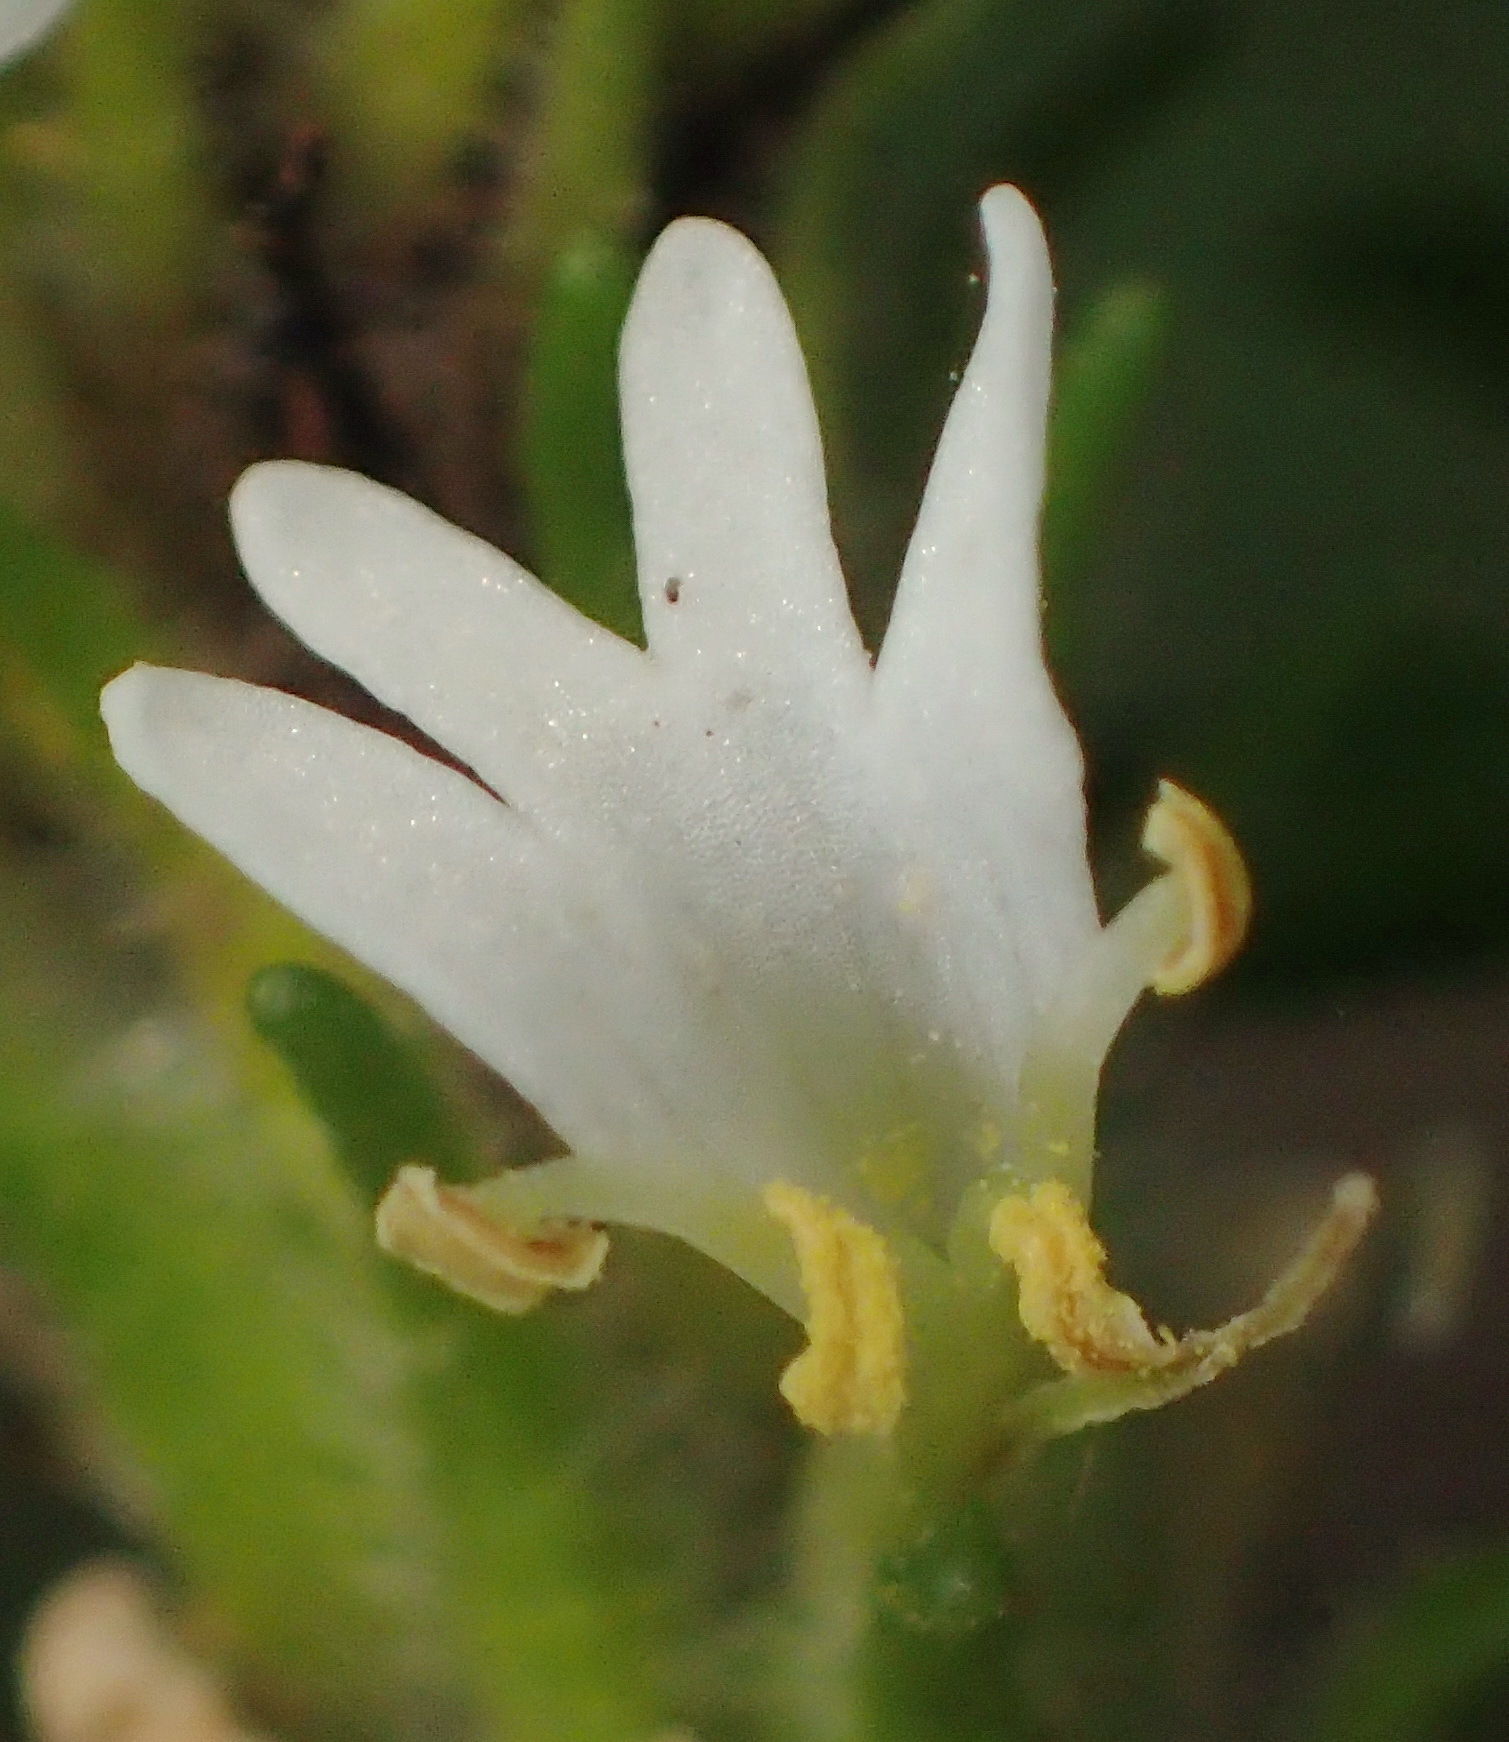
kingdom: Plantae
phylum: Tracheophyta
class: Magnoliopsida
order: Lamiales
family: Scrophulariaceae
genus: Dischisma
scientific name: Dischisma ciliatum
